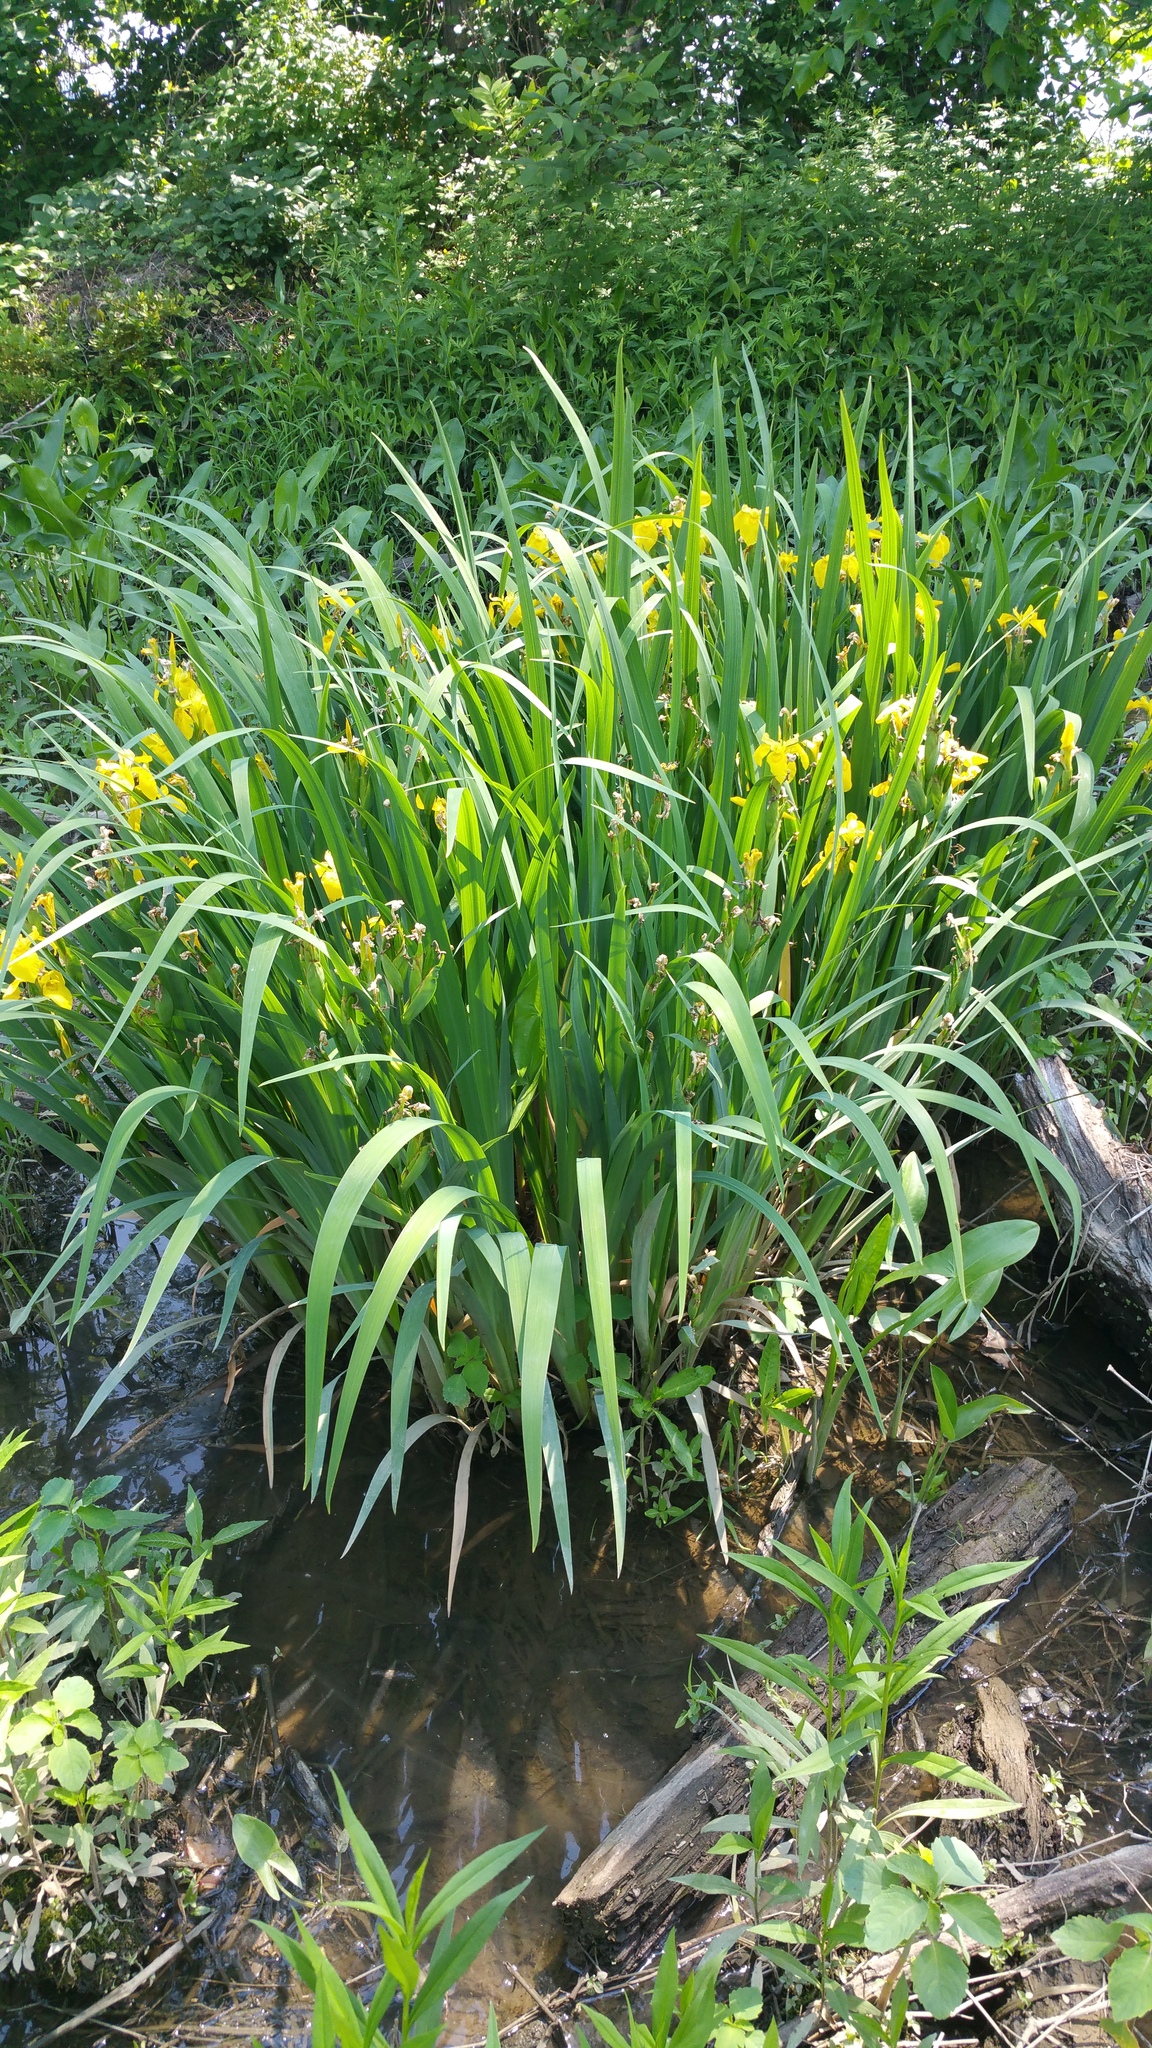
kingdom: Plantae
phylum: Tracheophyta
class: Liliopsida
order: Asparagales
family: Iridaceae
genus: Iris
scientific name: Iris pseudacorus
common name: Yellow flag
